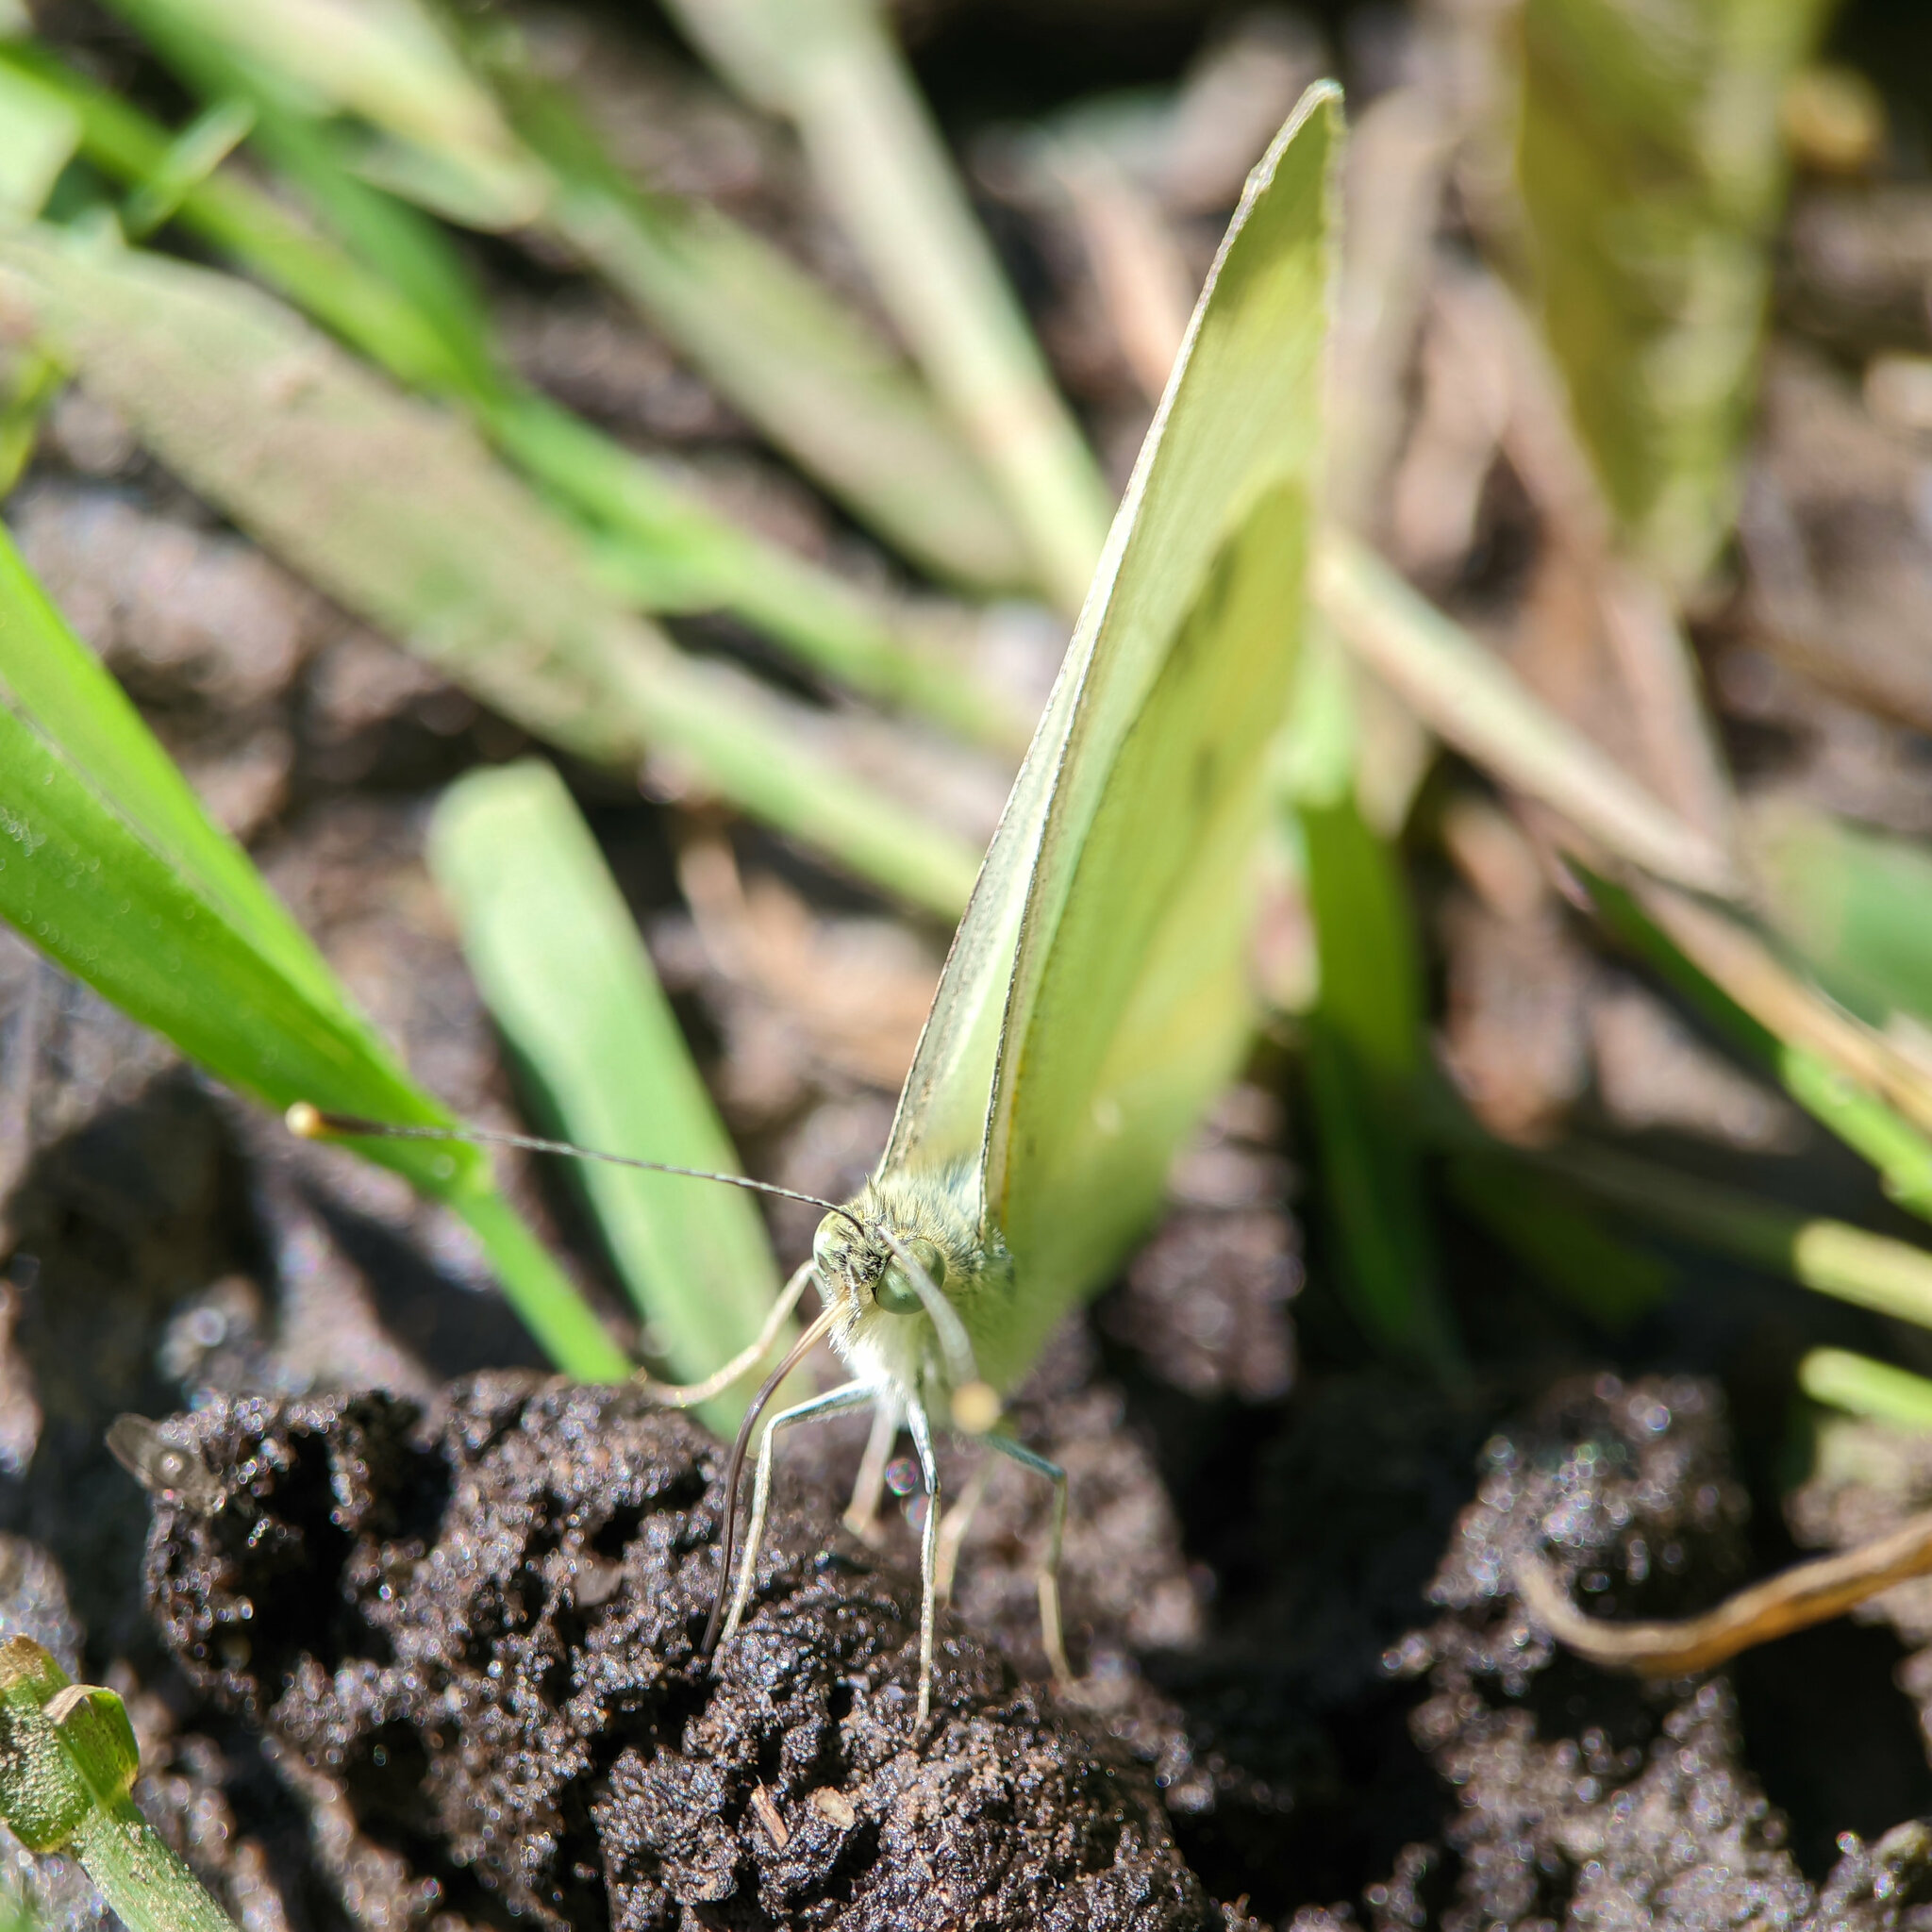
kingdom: Animalia
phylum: Arthropoda
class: Insecta
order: Lepidoptera
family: Pieridae
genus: Pieris
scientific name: Pieris rapae
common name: Small white
